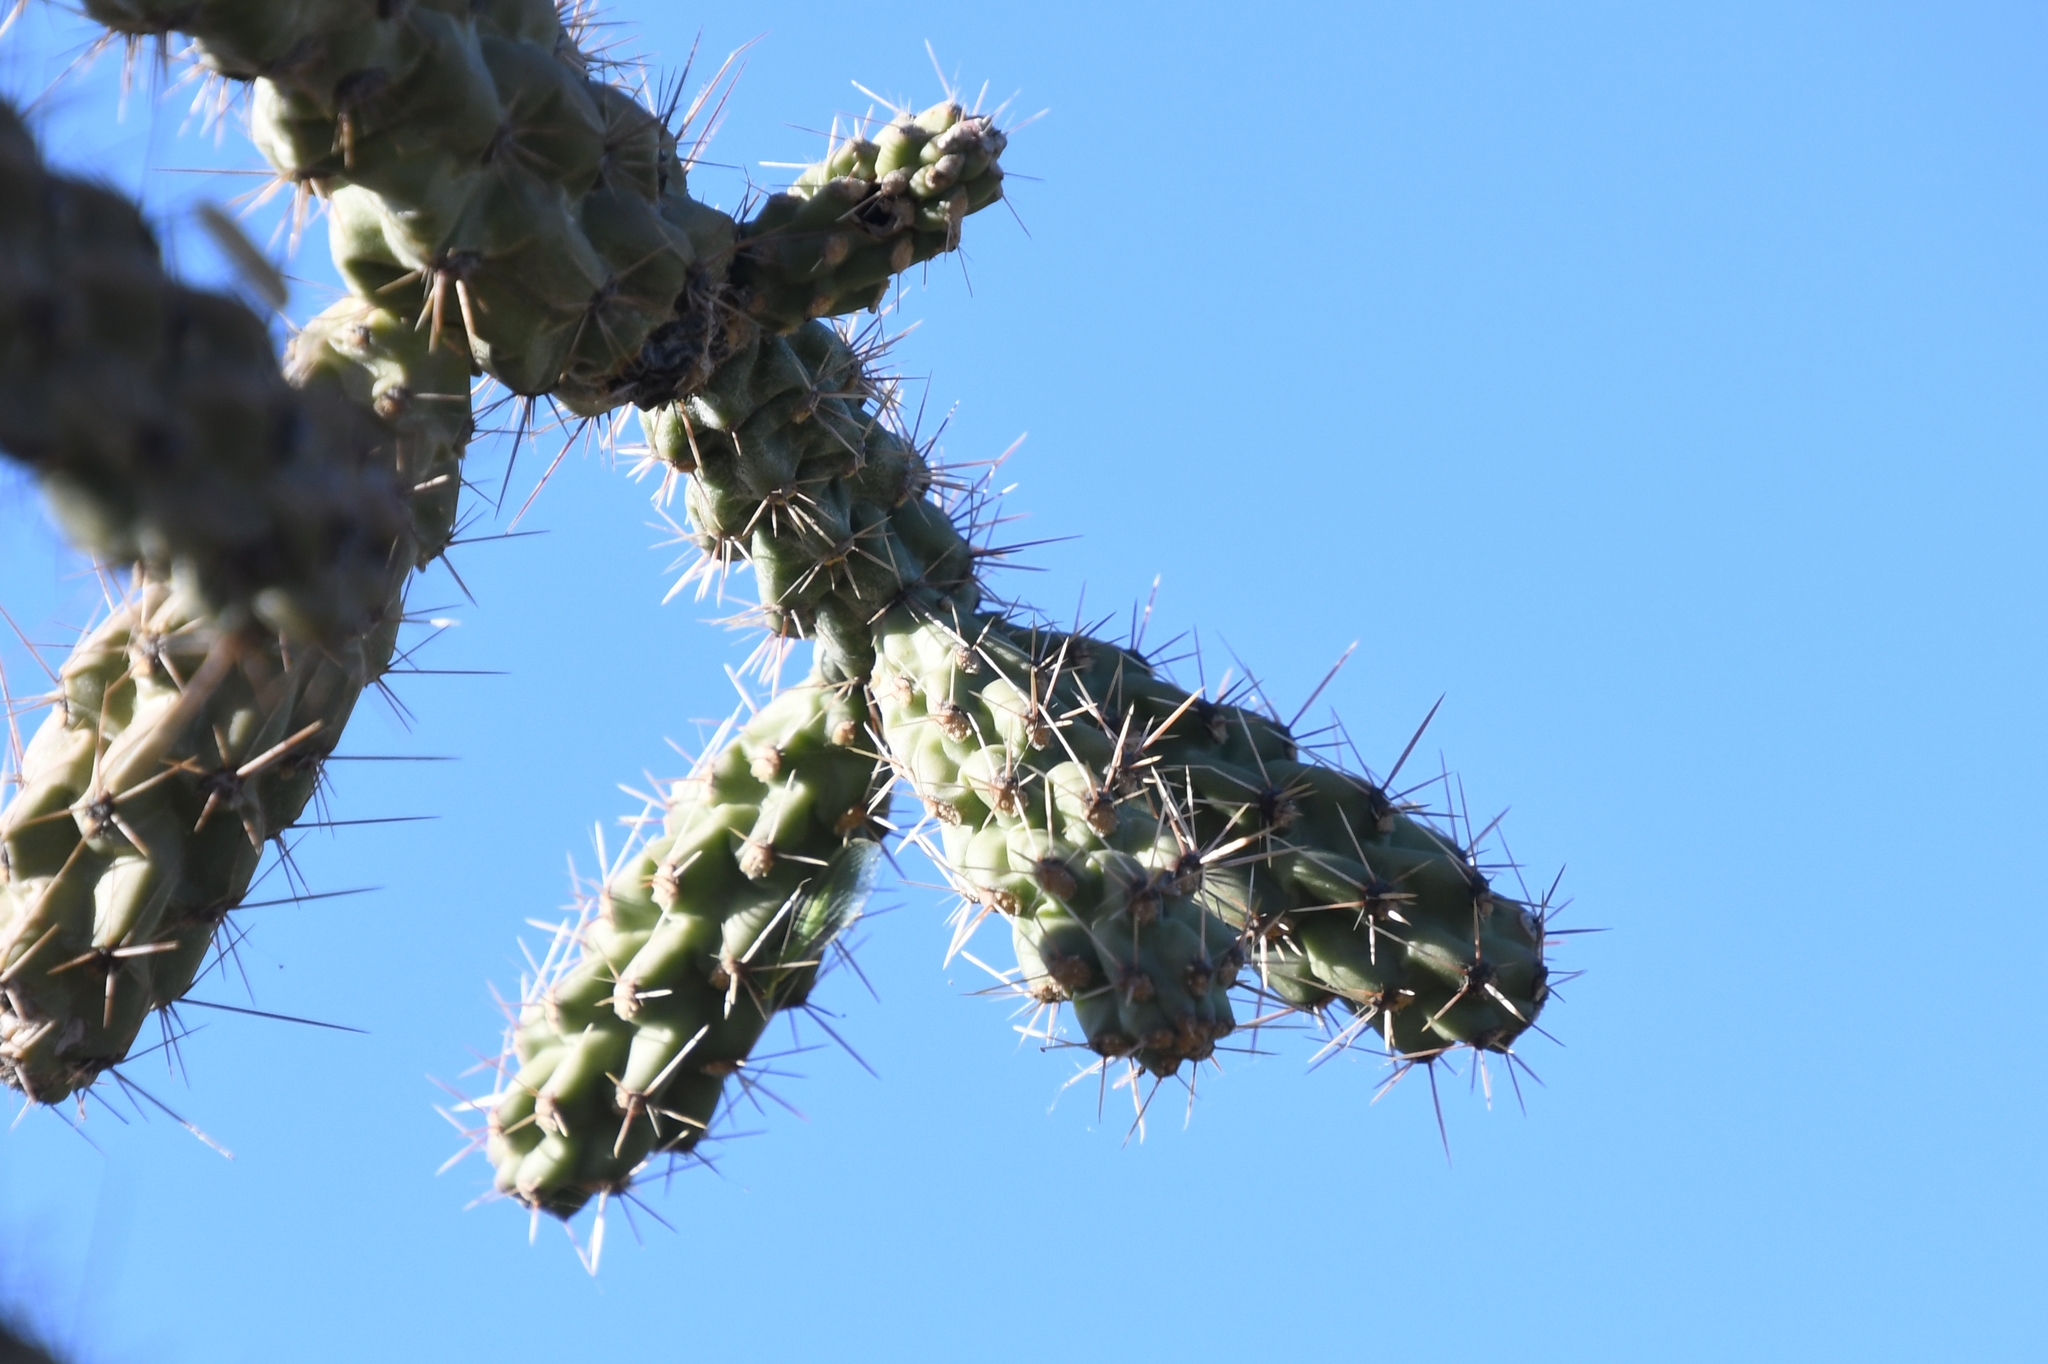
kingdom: Plantae
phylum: Tracheophyta
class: Magnoliopsida
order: Caryophyllales
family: Cactaceae
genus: Cylindropuntia
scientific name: Cylindropuntia imbricata
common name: Candelabrum cactus
